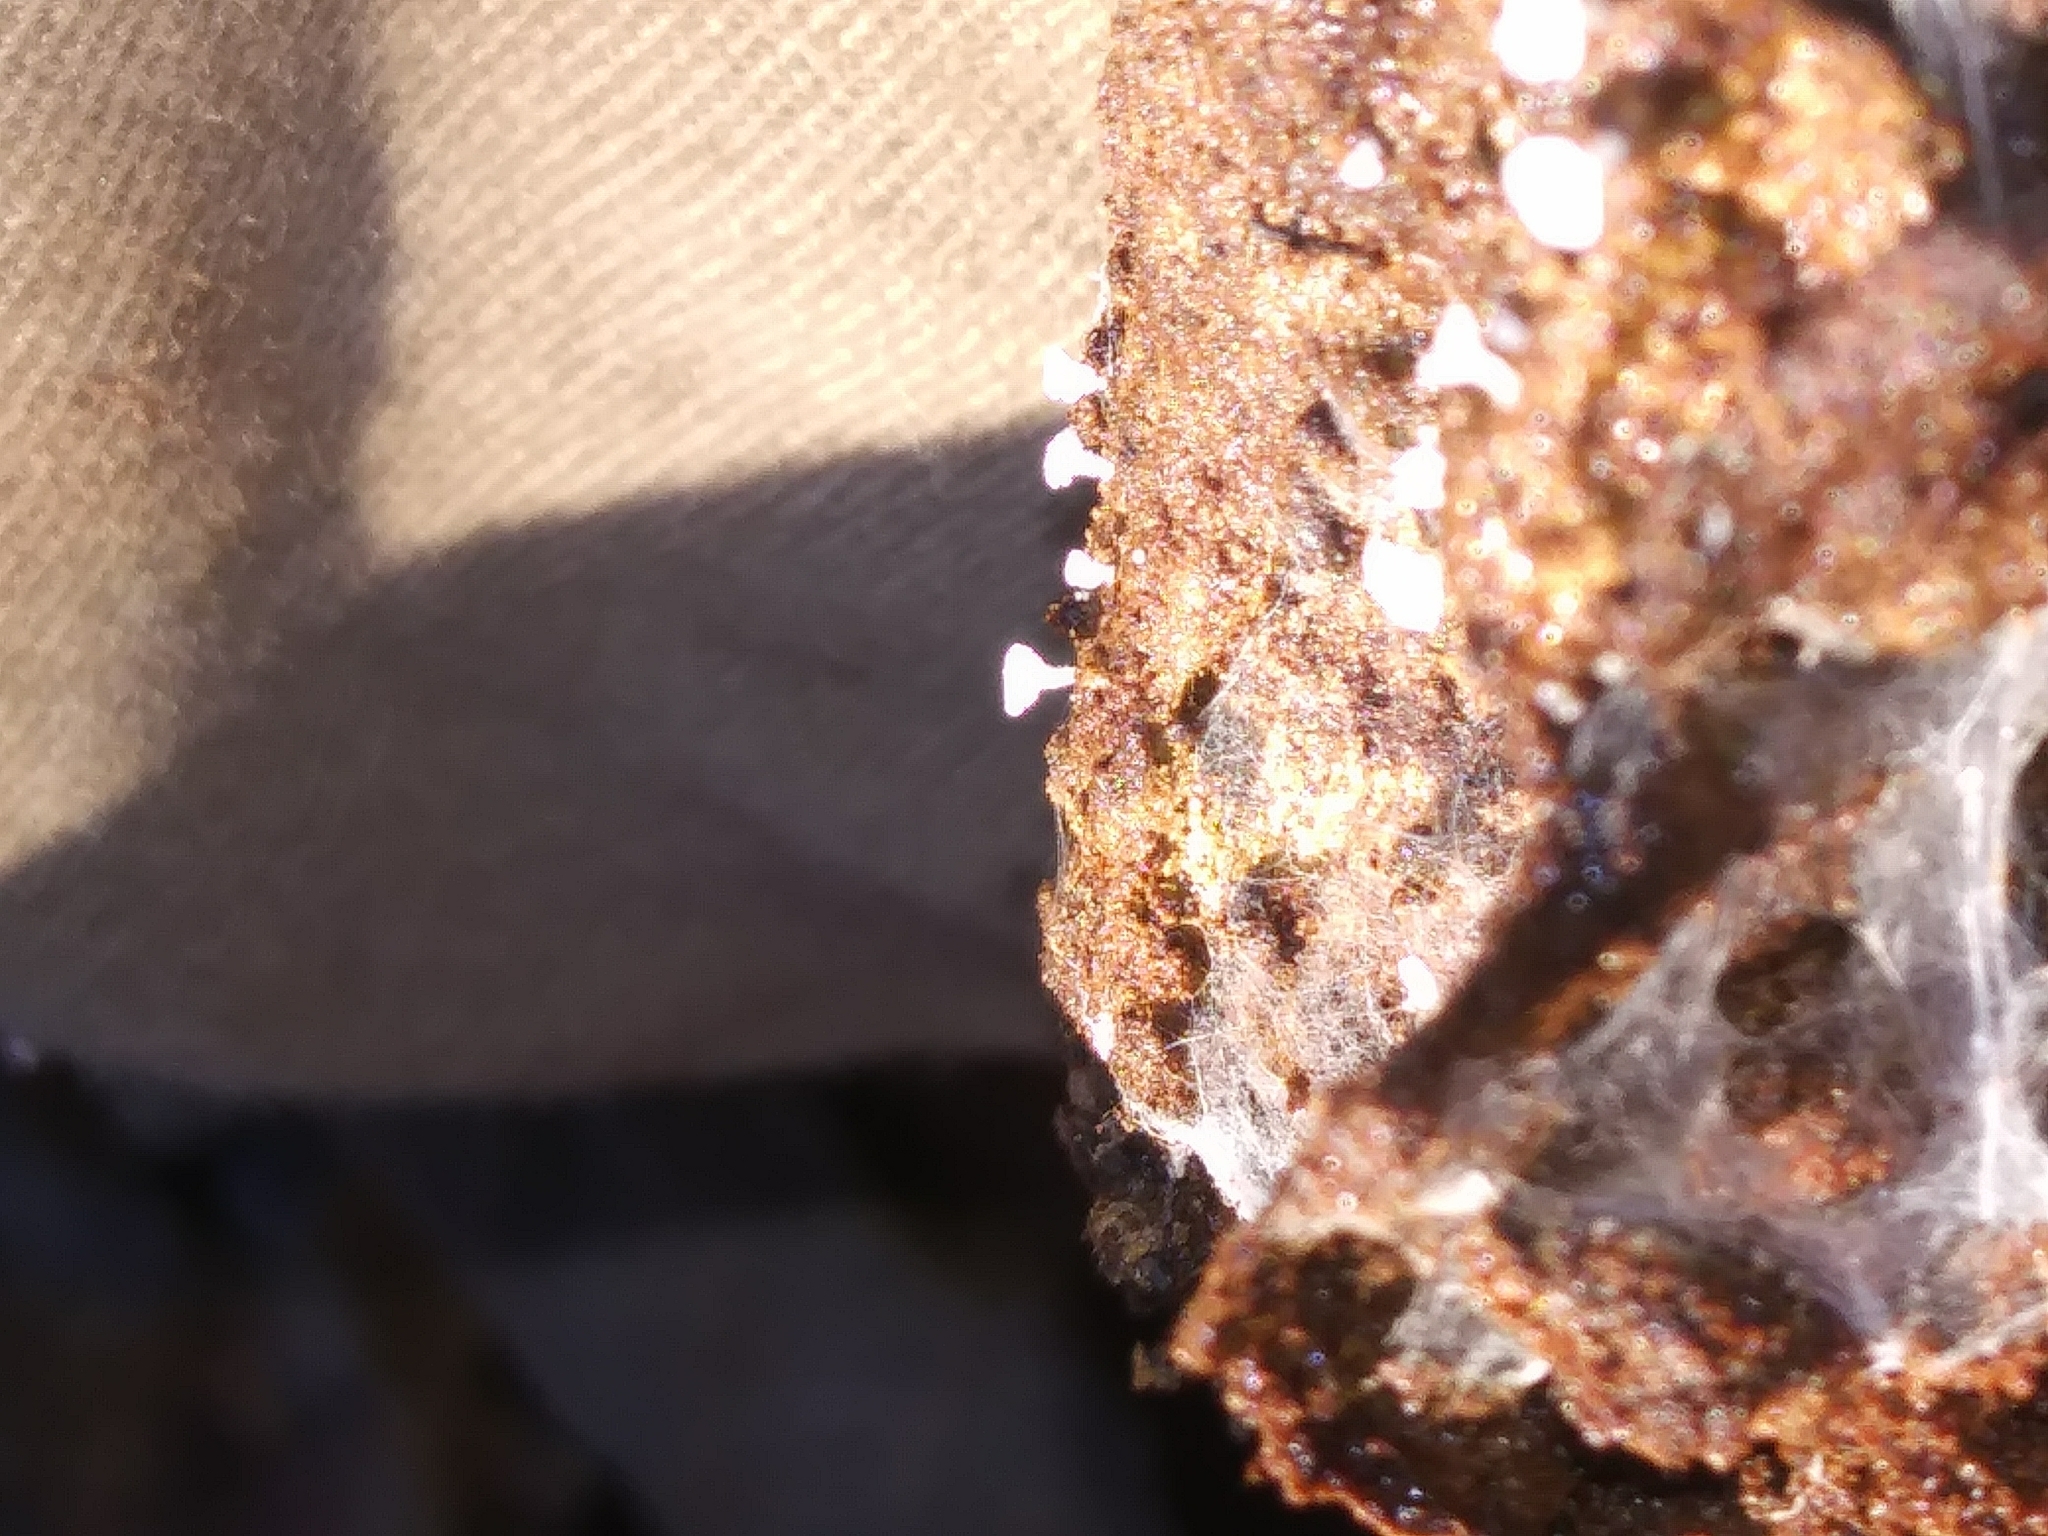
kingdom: Fungi
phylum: Ascomycota
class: Leotiomycetes
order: Helotiales
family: Lachnaceae
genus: Lachnum
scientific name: Lachnum virgineum
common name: Snowy disco
